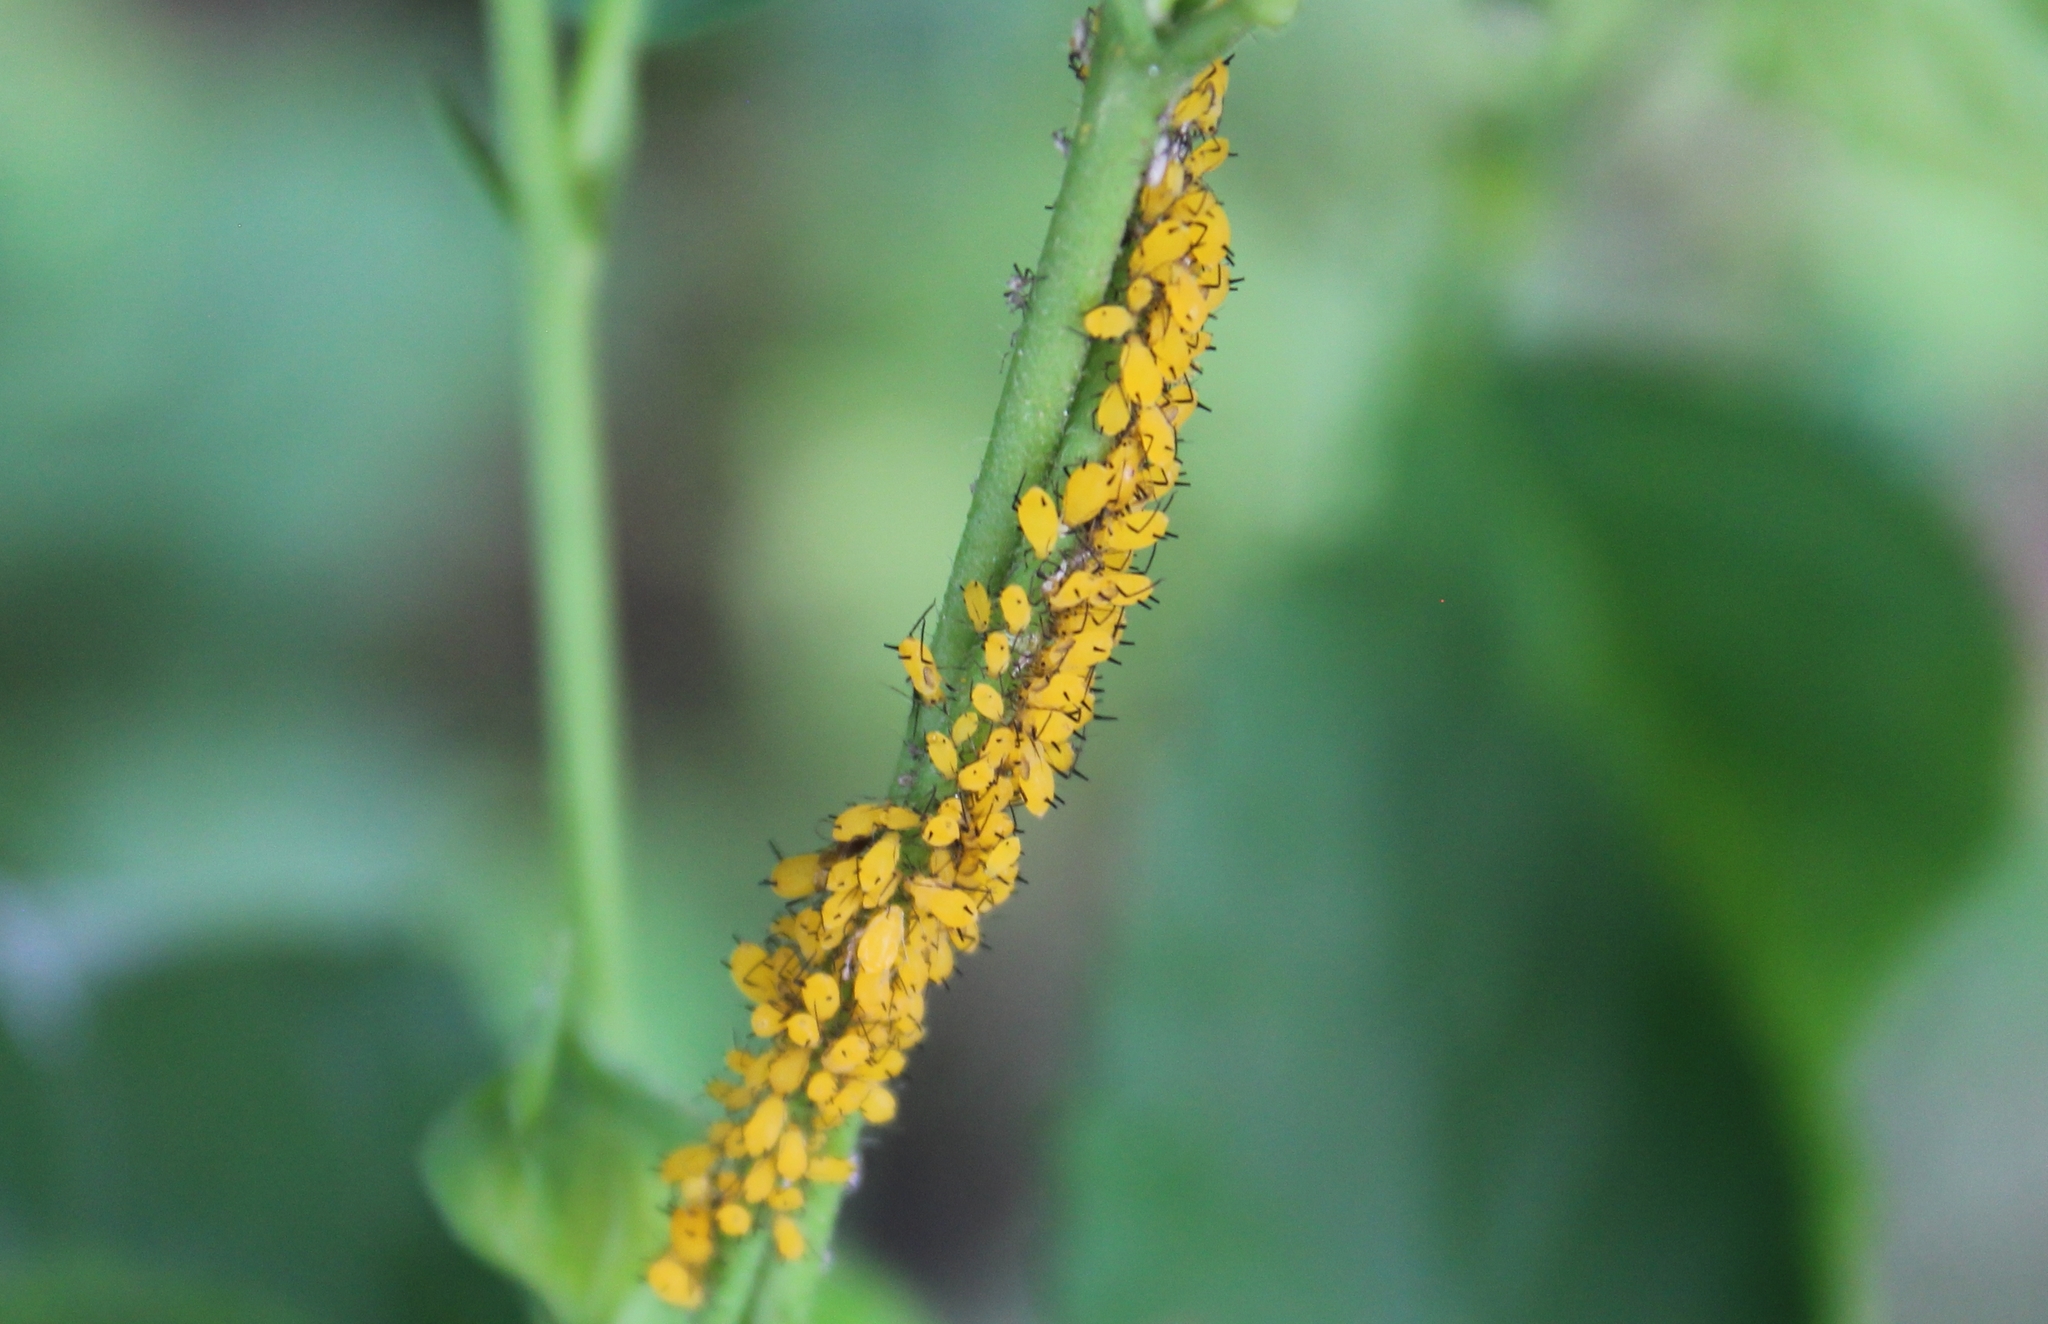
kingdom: Animalia
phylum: Arthropoda
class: Insecta
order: Hemiptera
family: Aphididae
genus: Aphis
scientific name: Aphis nerii
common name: Oleander aphid
